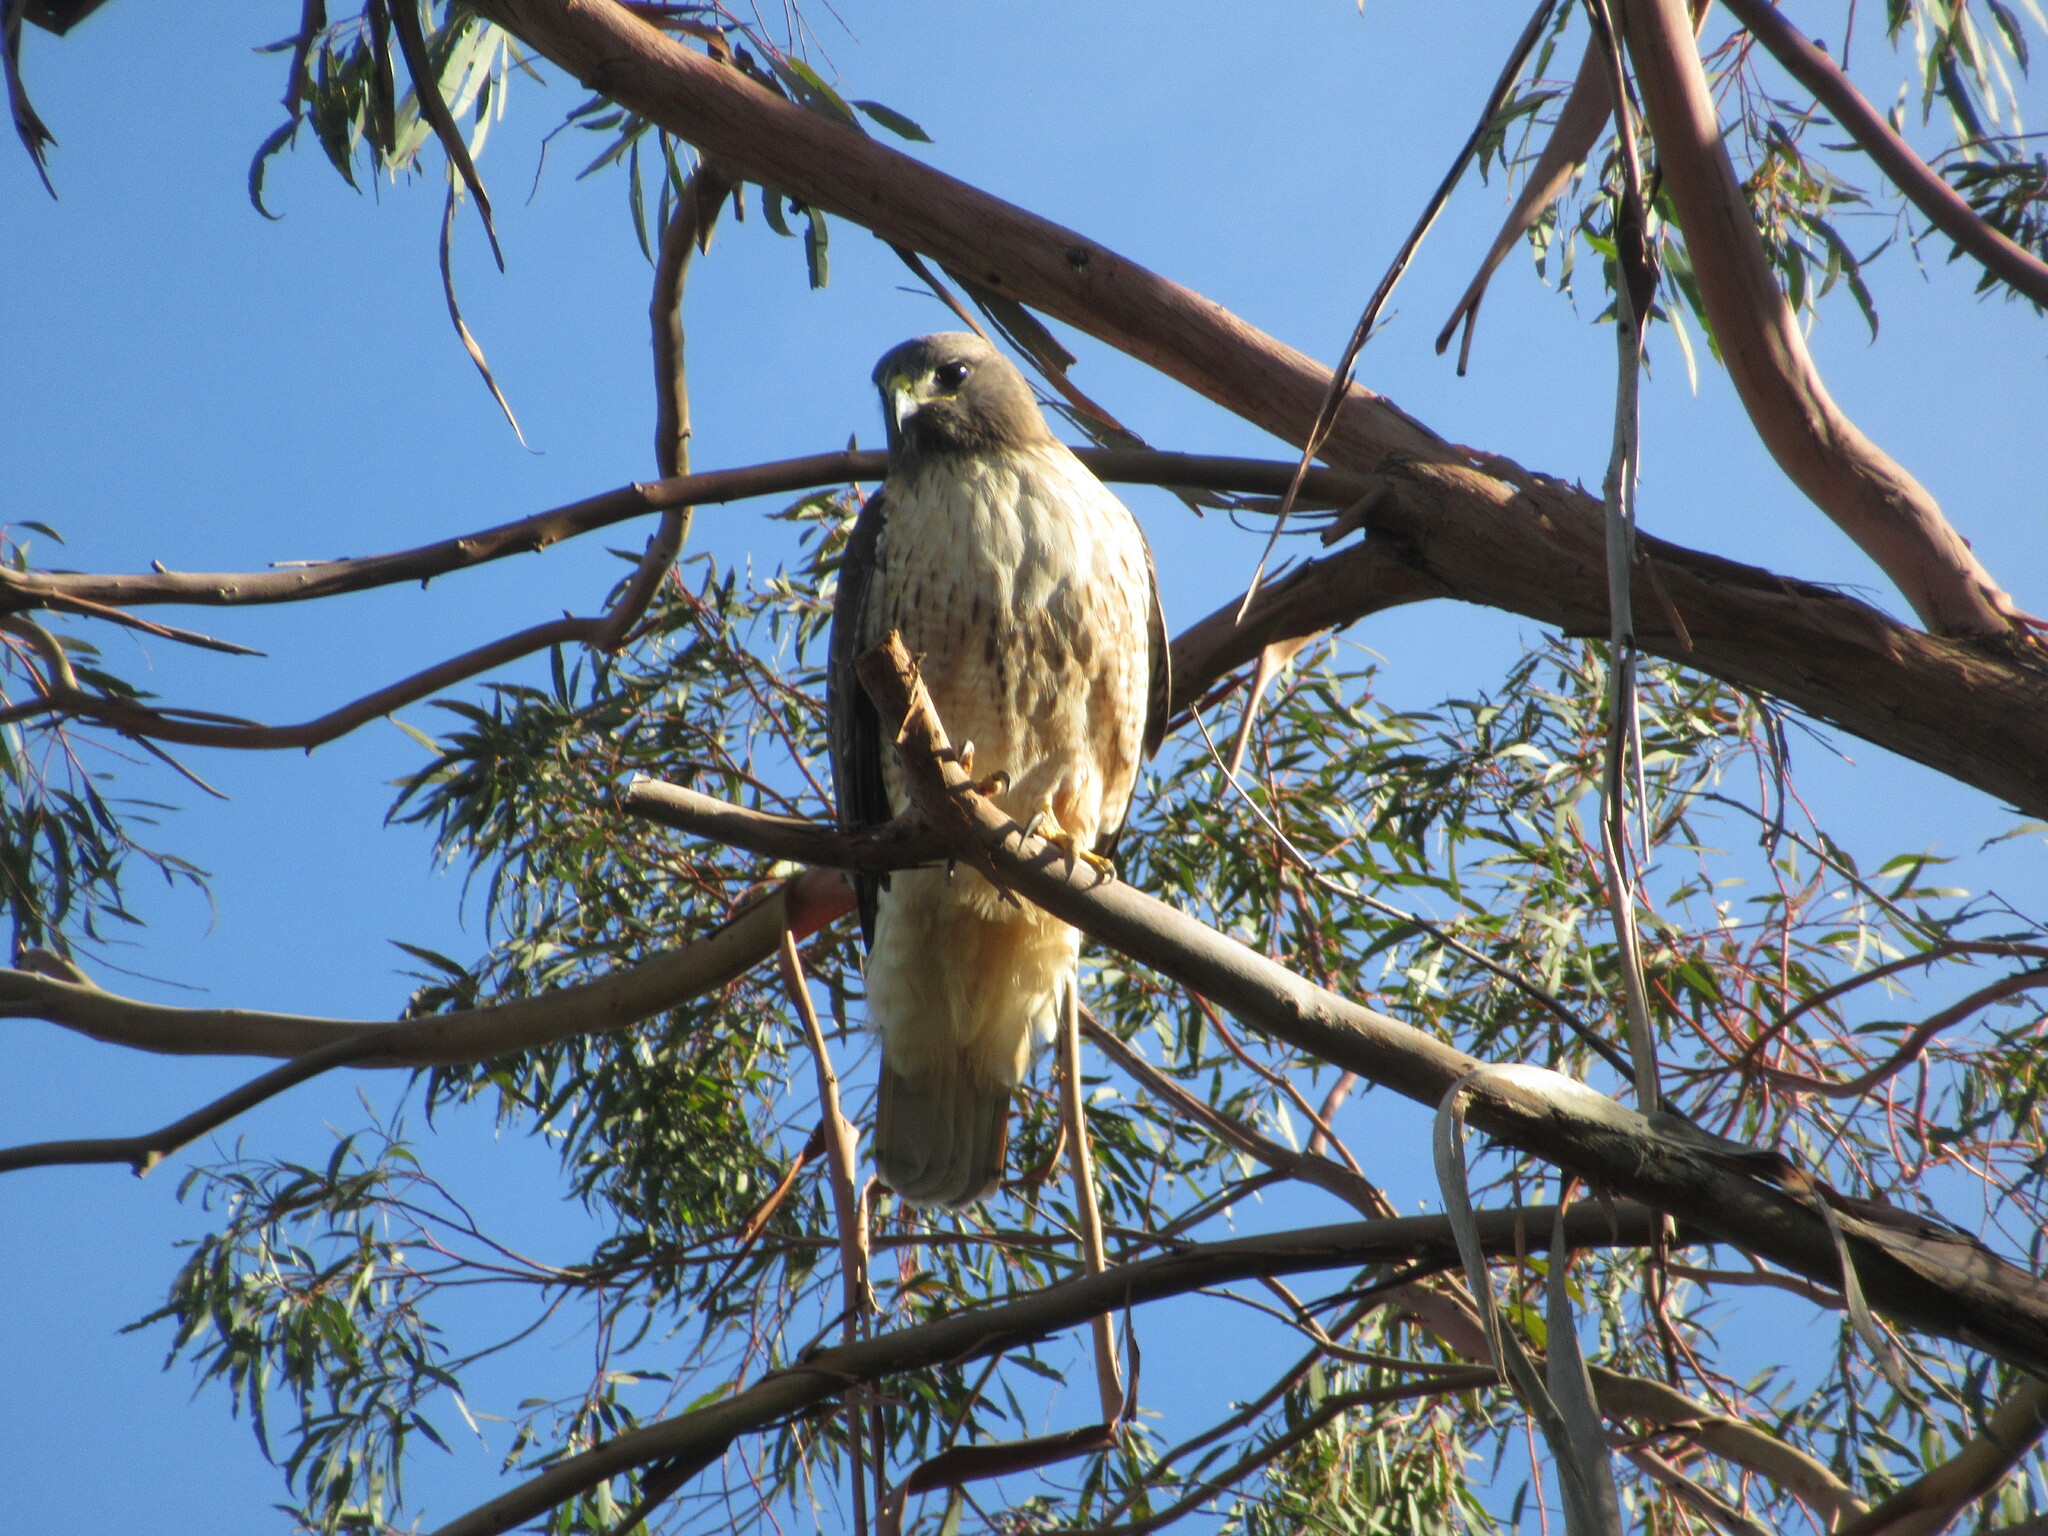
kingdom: Animalia
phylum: Chordata
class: Aves
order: Accipitriformes
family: Accipitridae
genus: Buteo
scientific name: Buteo jamaicensis
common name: Red-tailed hawk
